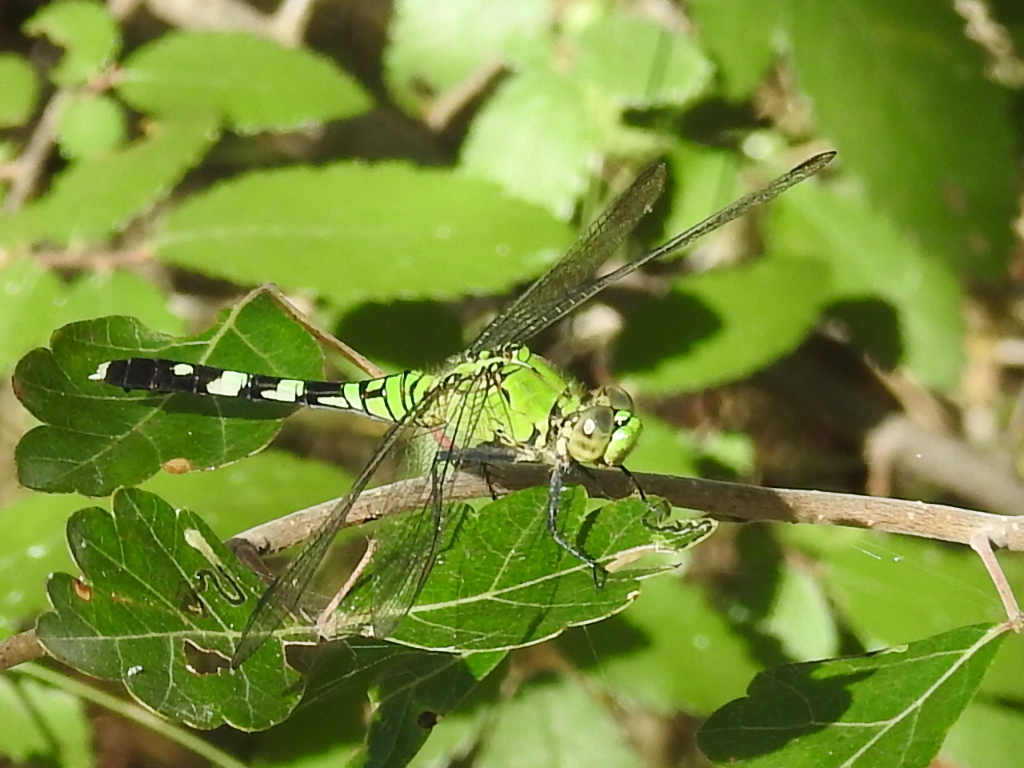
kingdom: Animalia
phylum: Arthropoda
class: Insecta
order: Odonata
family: Libellulidae
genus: Erythemis
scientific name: Erythemis simplicicollis
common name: Eastern pondhawk
